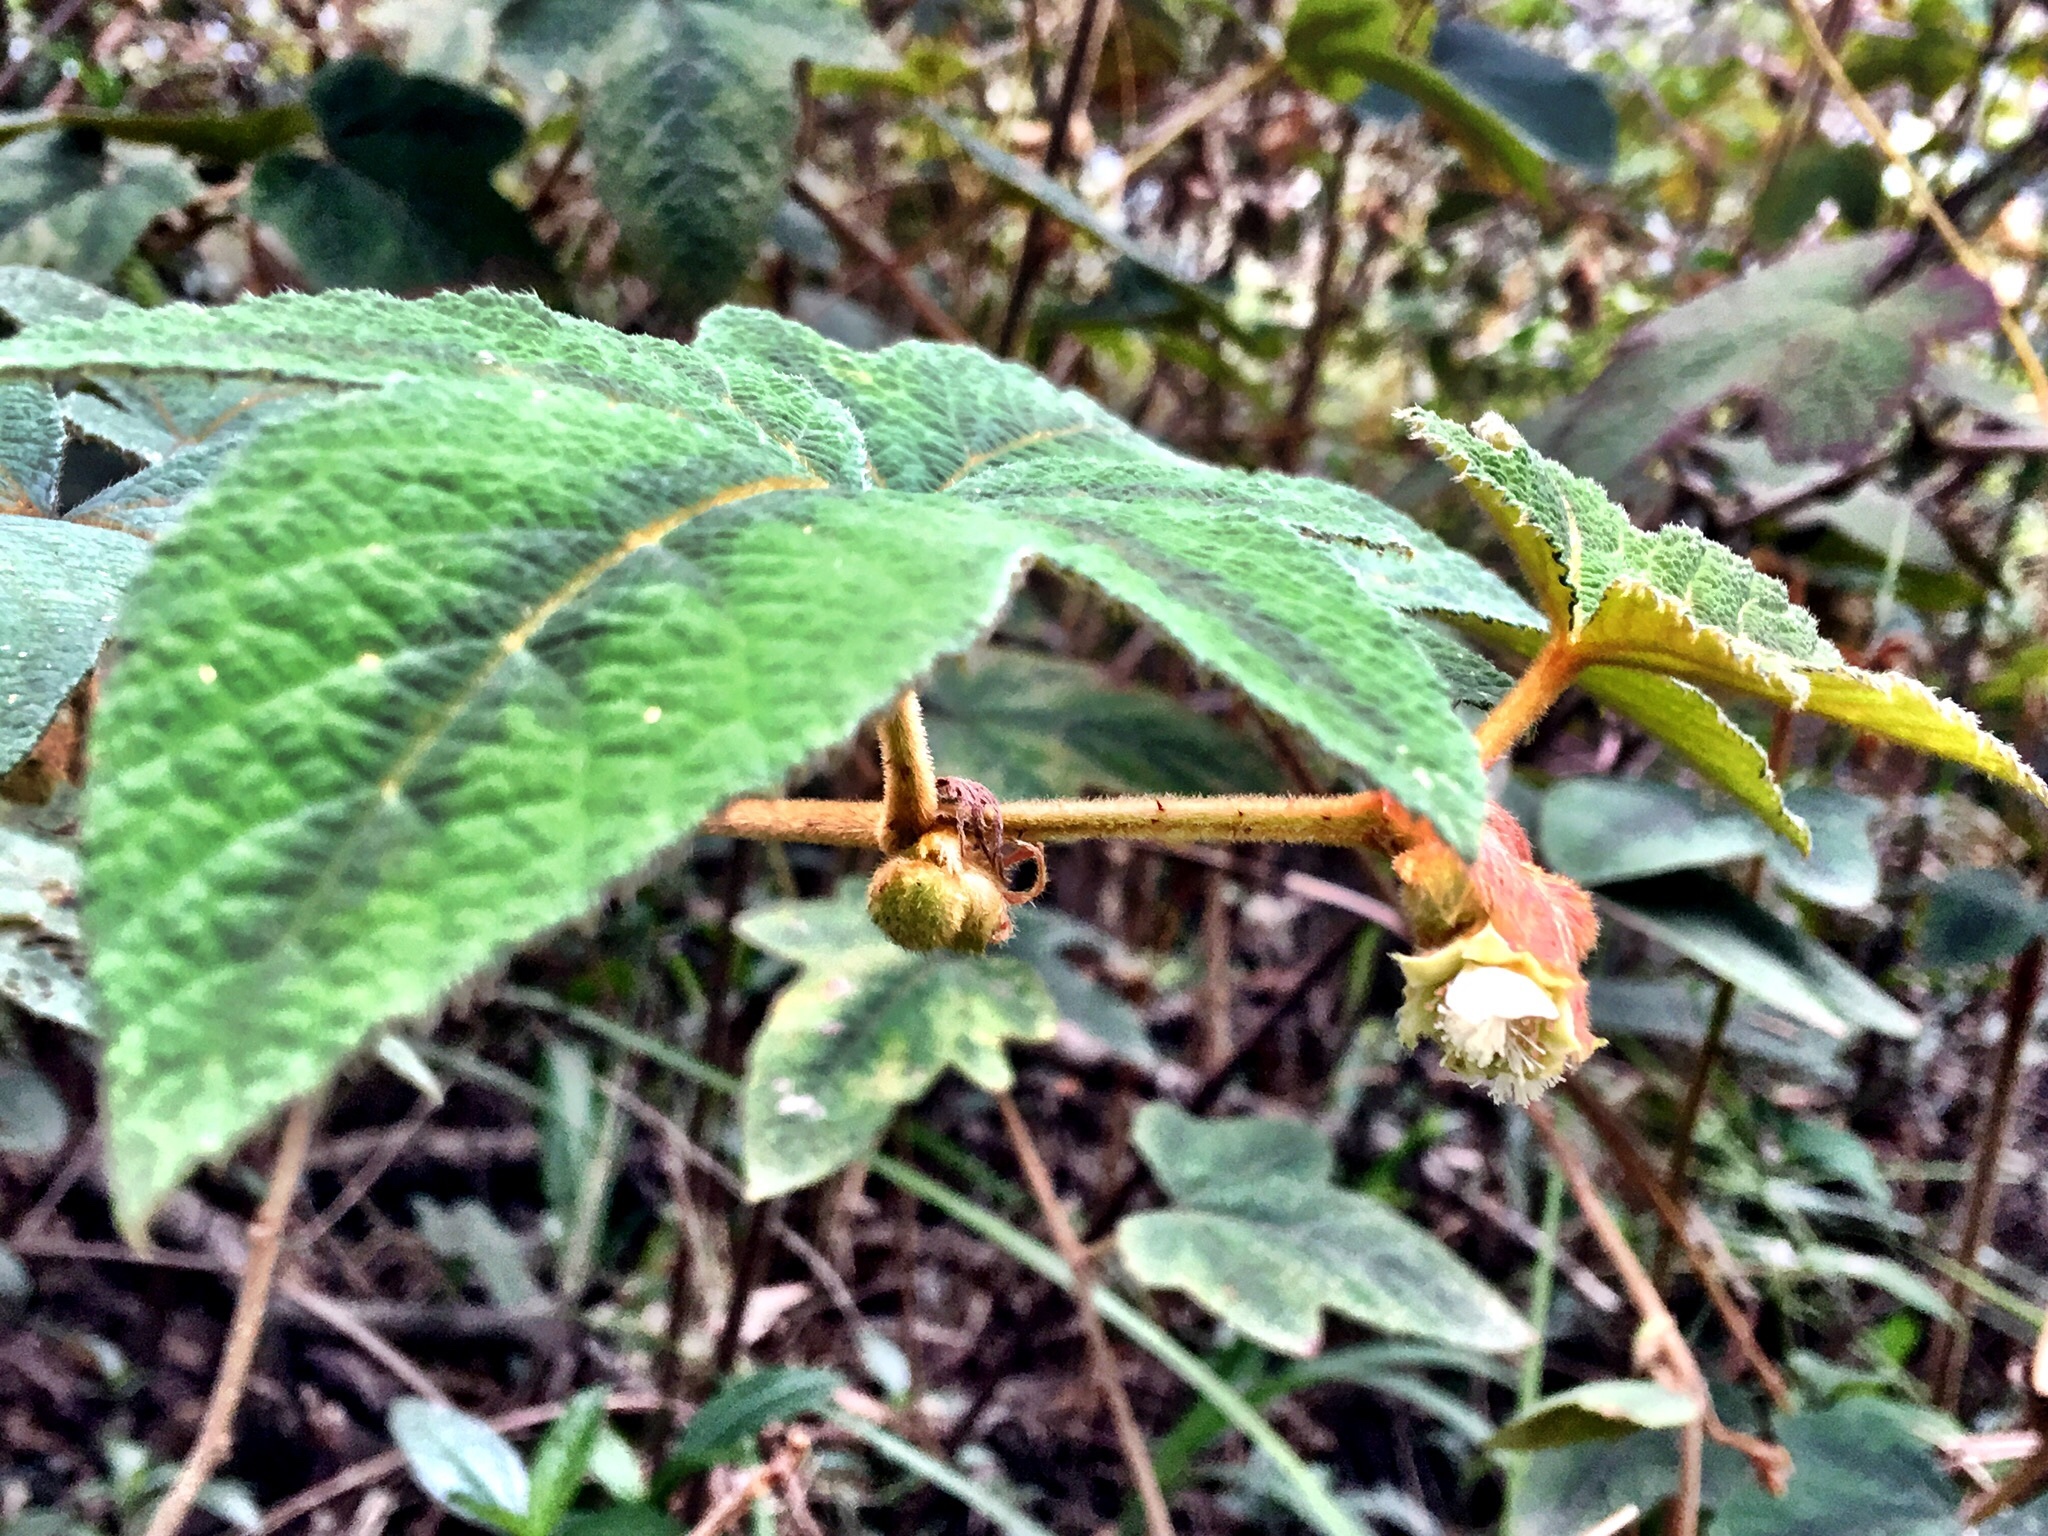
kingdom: Plantae
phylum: Tracheophyta
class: Magnoliopsida
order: Rosales
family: Rosaceae
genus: Rubus
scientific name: Rubus reflexus
